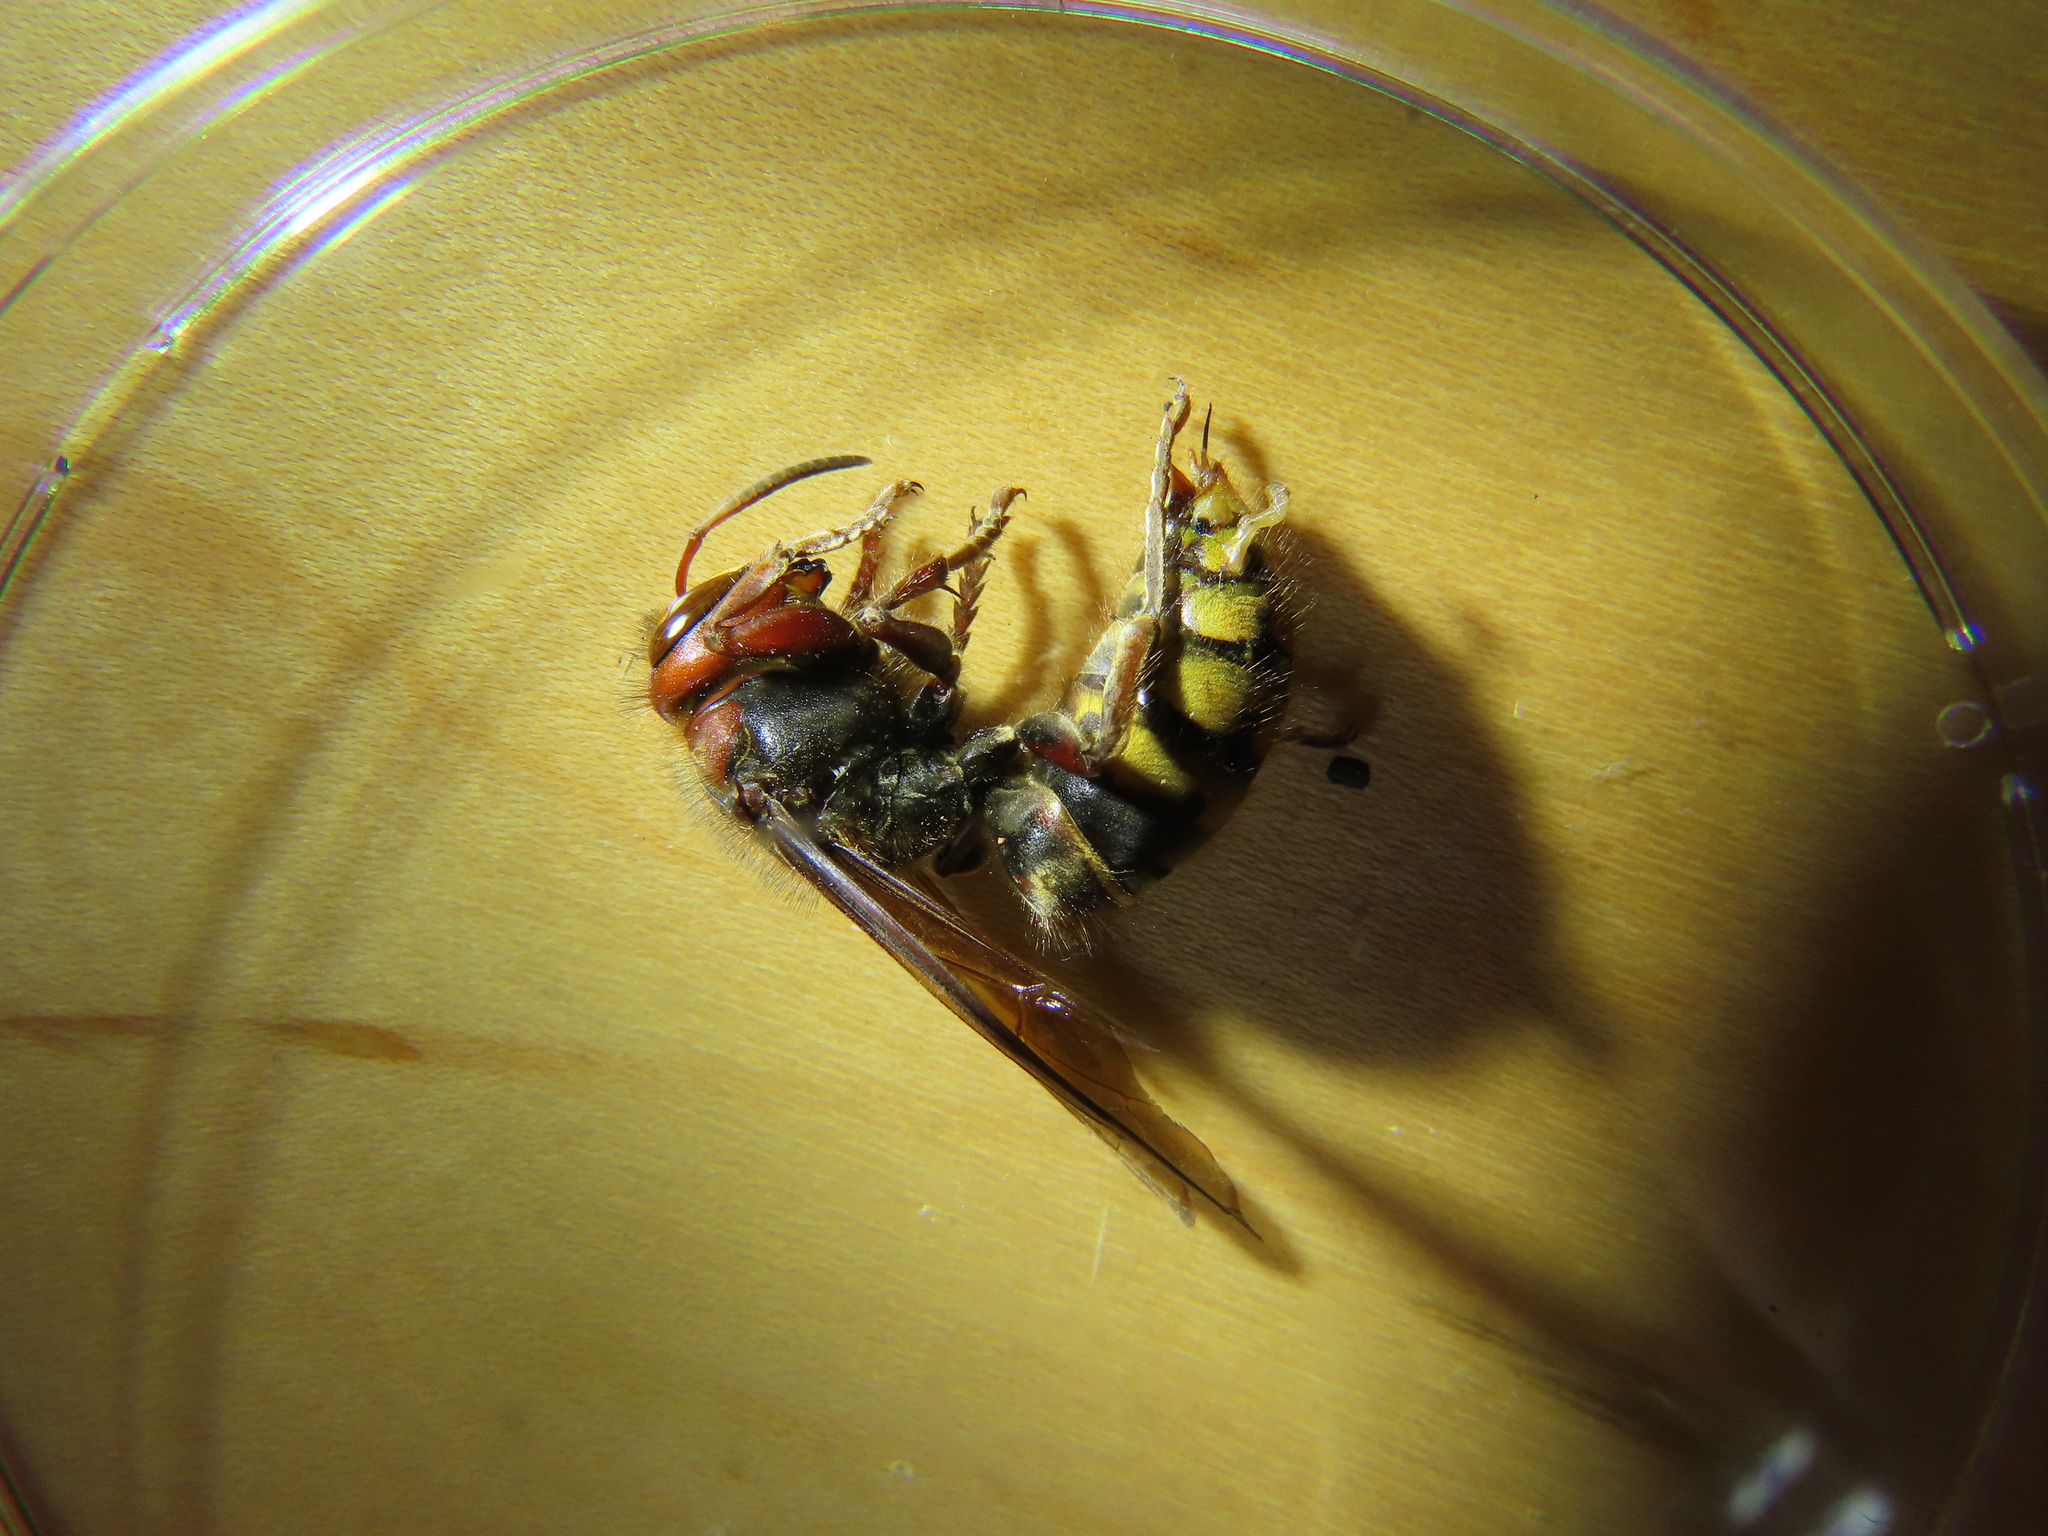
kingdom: Animalia
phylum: Arthropoda
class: Insecta
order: Hymenoptera
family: Vespidae
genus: Vespa
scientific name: Vespa crabro
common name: Hornet
